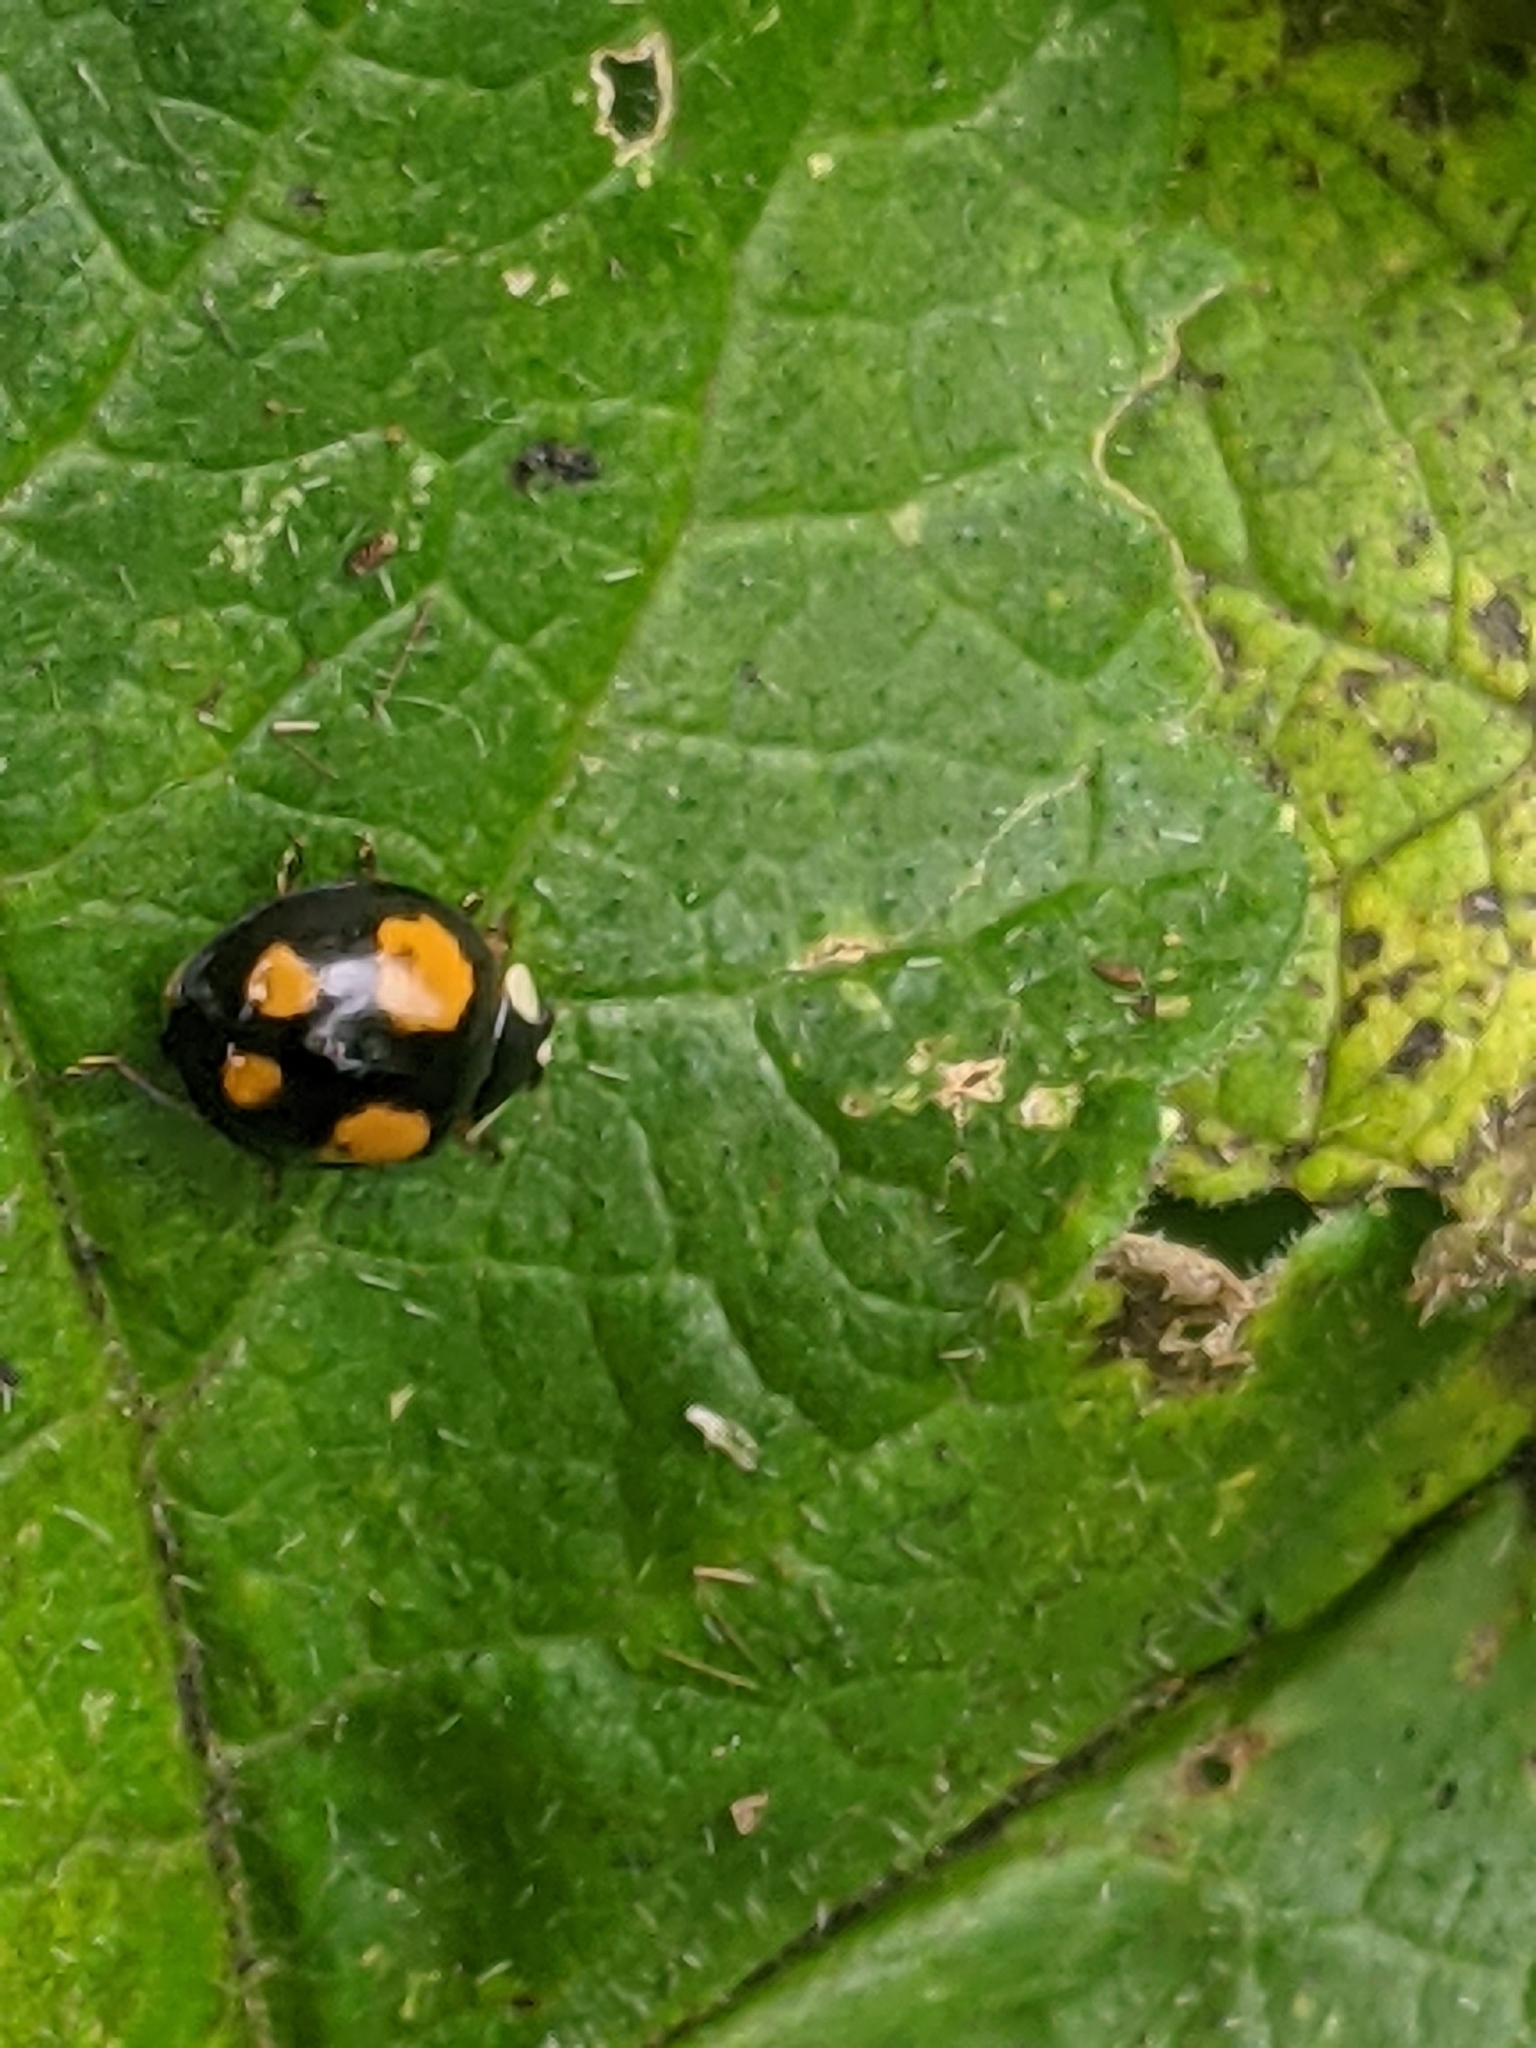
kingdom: Animalia
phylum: Arthropoda
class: Insecta
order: Coleoptera
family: Coccinellidae
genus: Harmonia
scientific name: Harmonia axyridis
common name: Harlequin ladybird
